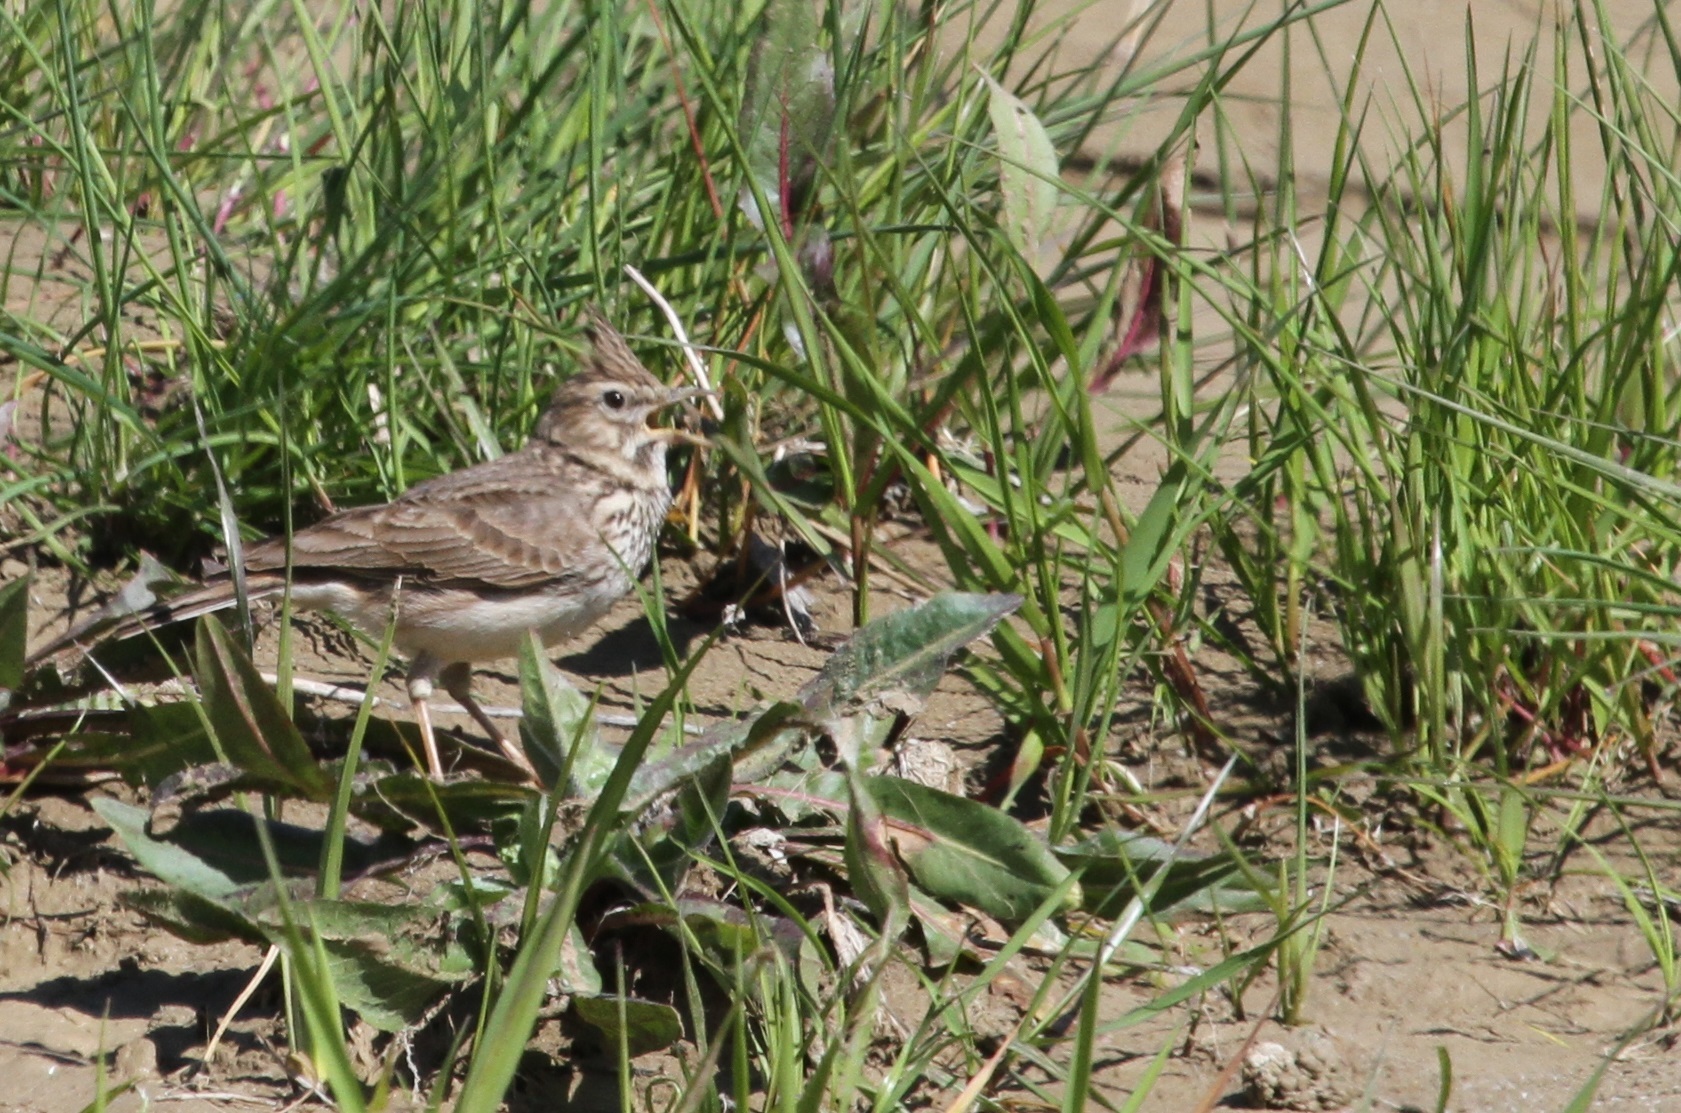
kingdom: Animalia
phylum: Chordata
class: Aves
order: Passeriformes
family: Alaudidae
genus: Galerida
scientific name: Galerida theklae
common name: Thekla lark
